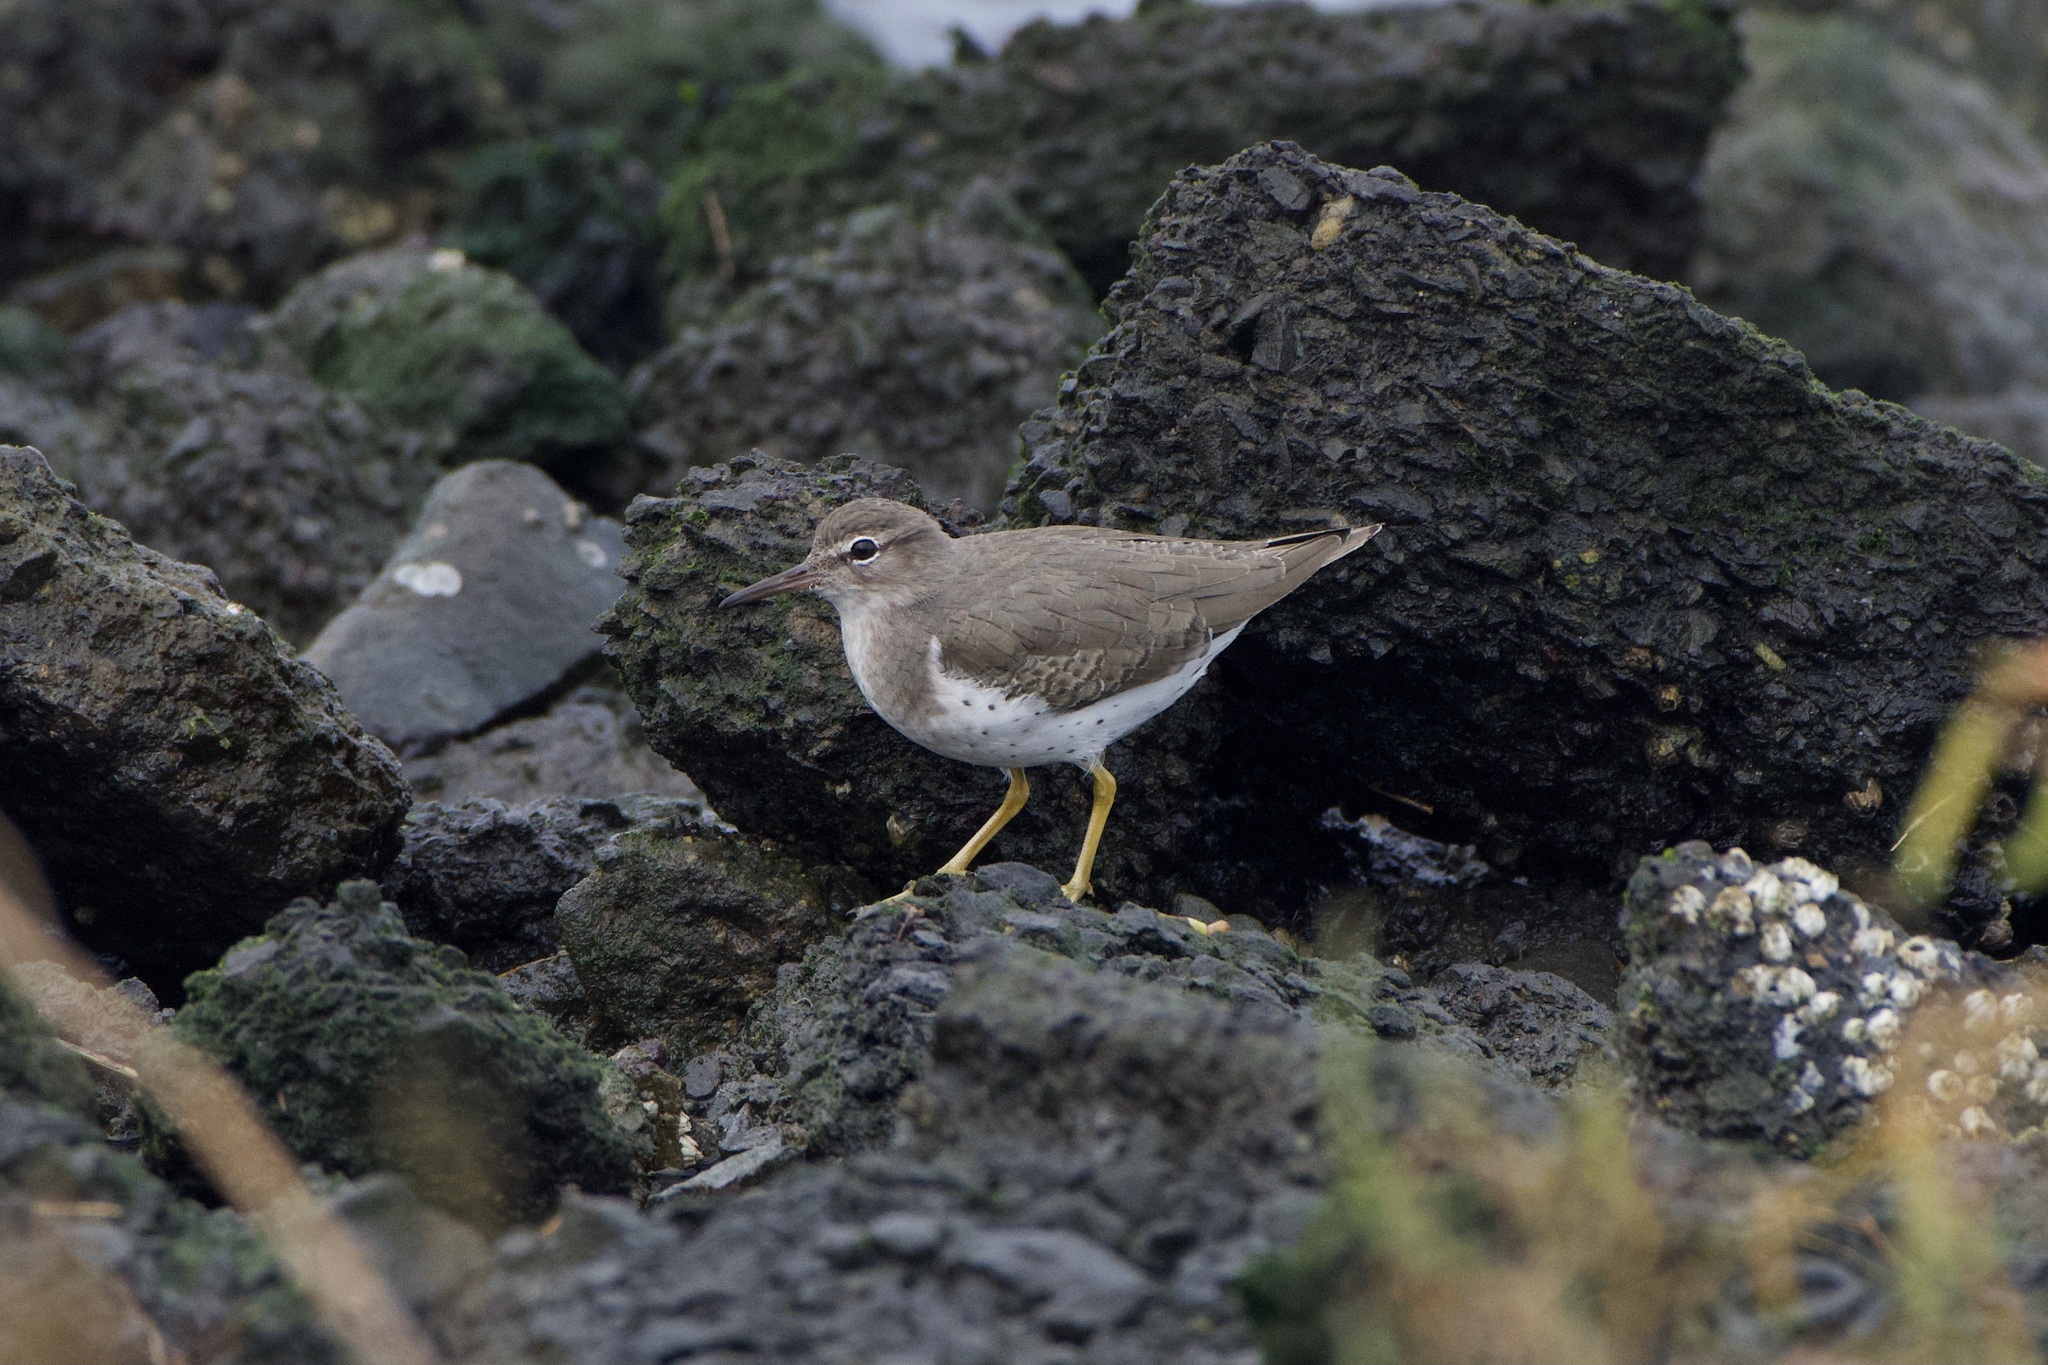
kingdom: Animalia
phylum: Chordata
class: Aves
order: Charadriiformes
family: Scolopacidae
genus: Actitis
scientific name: Actitis macularius
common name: Spotted sandpiper
